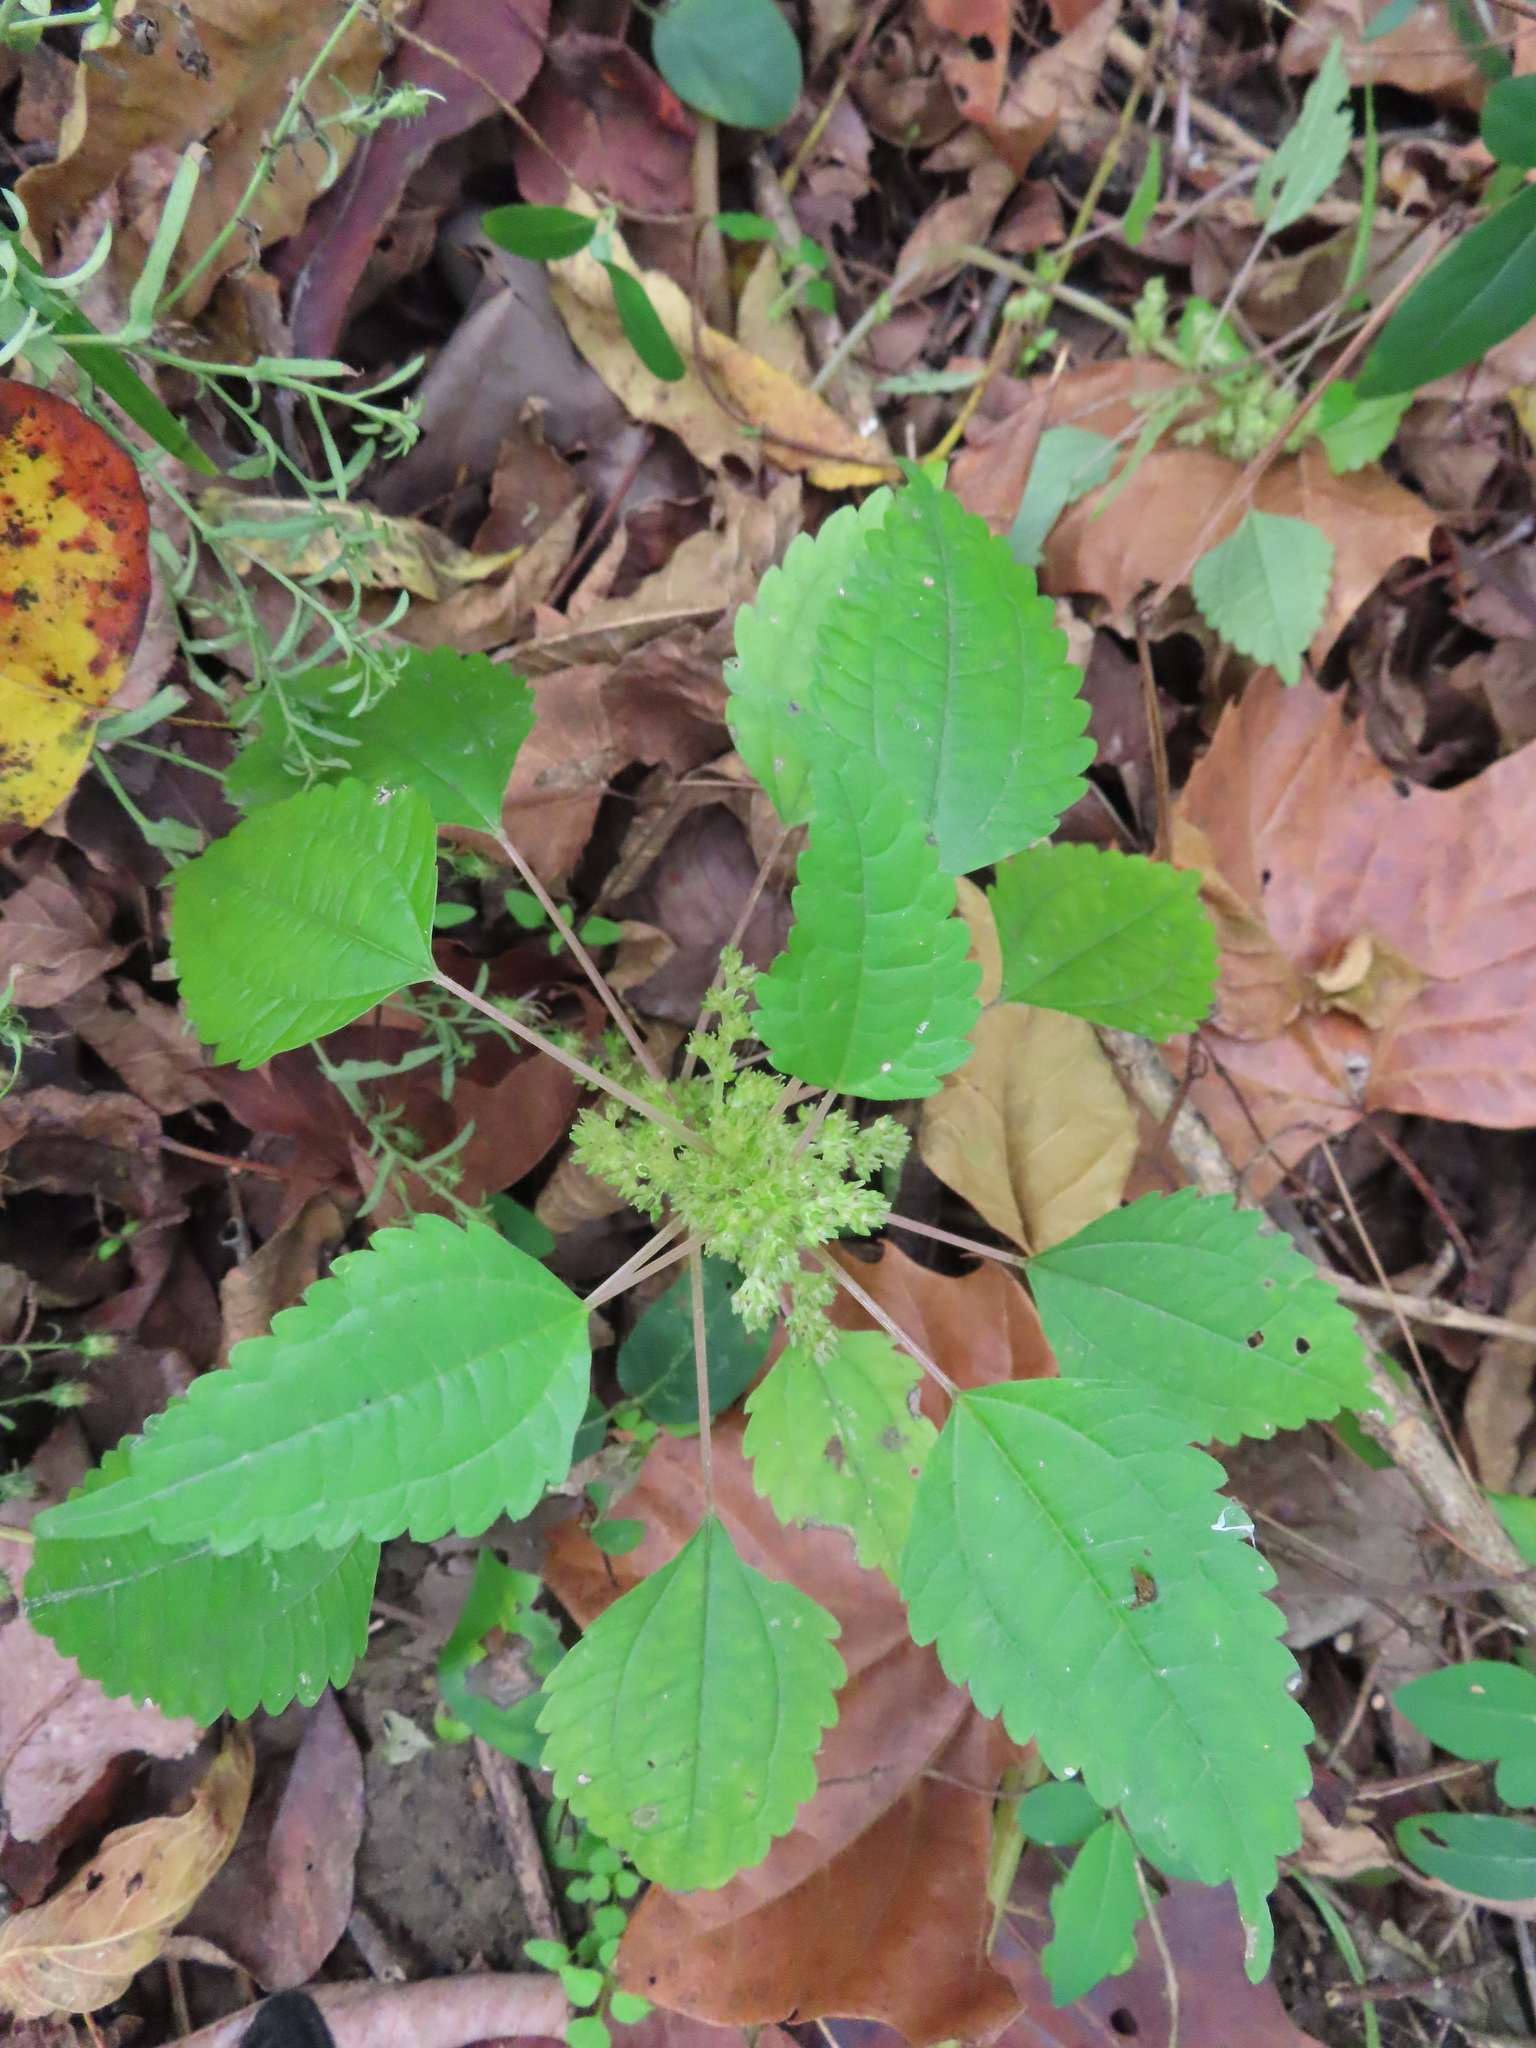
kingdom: Plantae
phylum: Tracheophyta
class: Magnoliopsida
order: Rosales
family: Urticaceae
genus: Pilea
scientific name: Pilea pumila
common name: Clearweed
